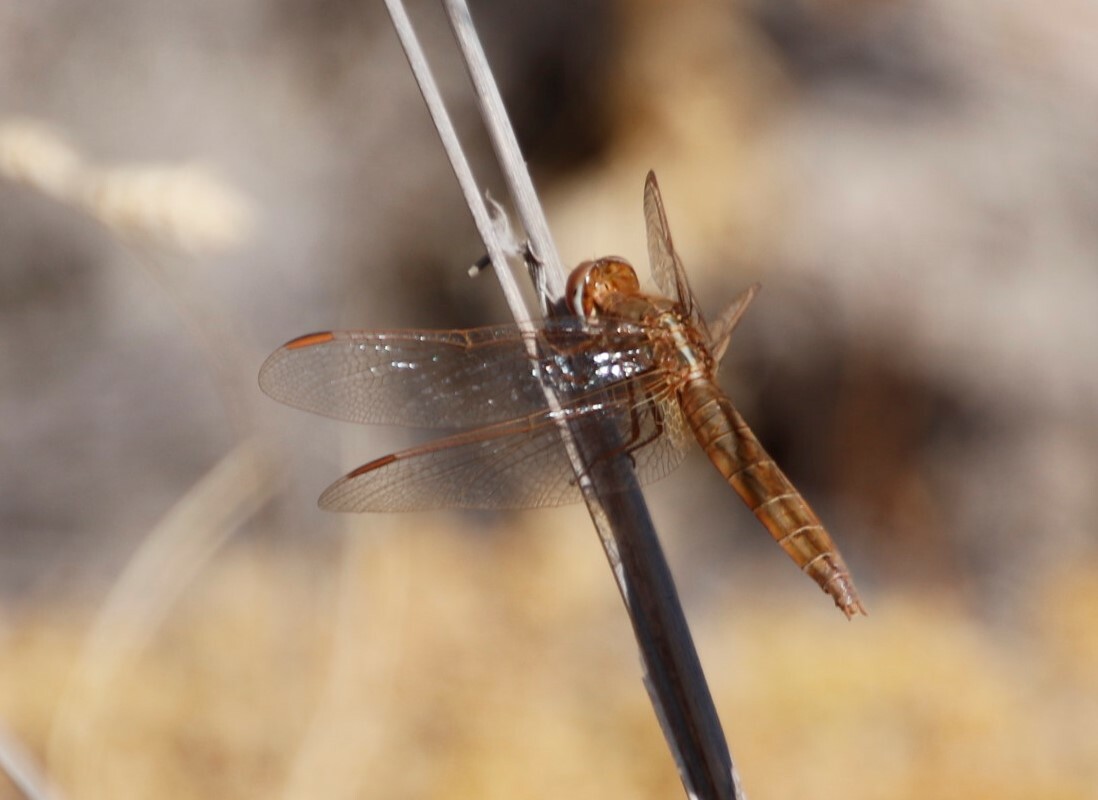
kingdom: Animalia
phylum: Arthropoda
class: Insecta
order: Odonata
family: Libellulidae
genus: Crocothemis
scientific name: Crocothemis erythraea
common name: Scarlet dragonfly
